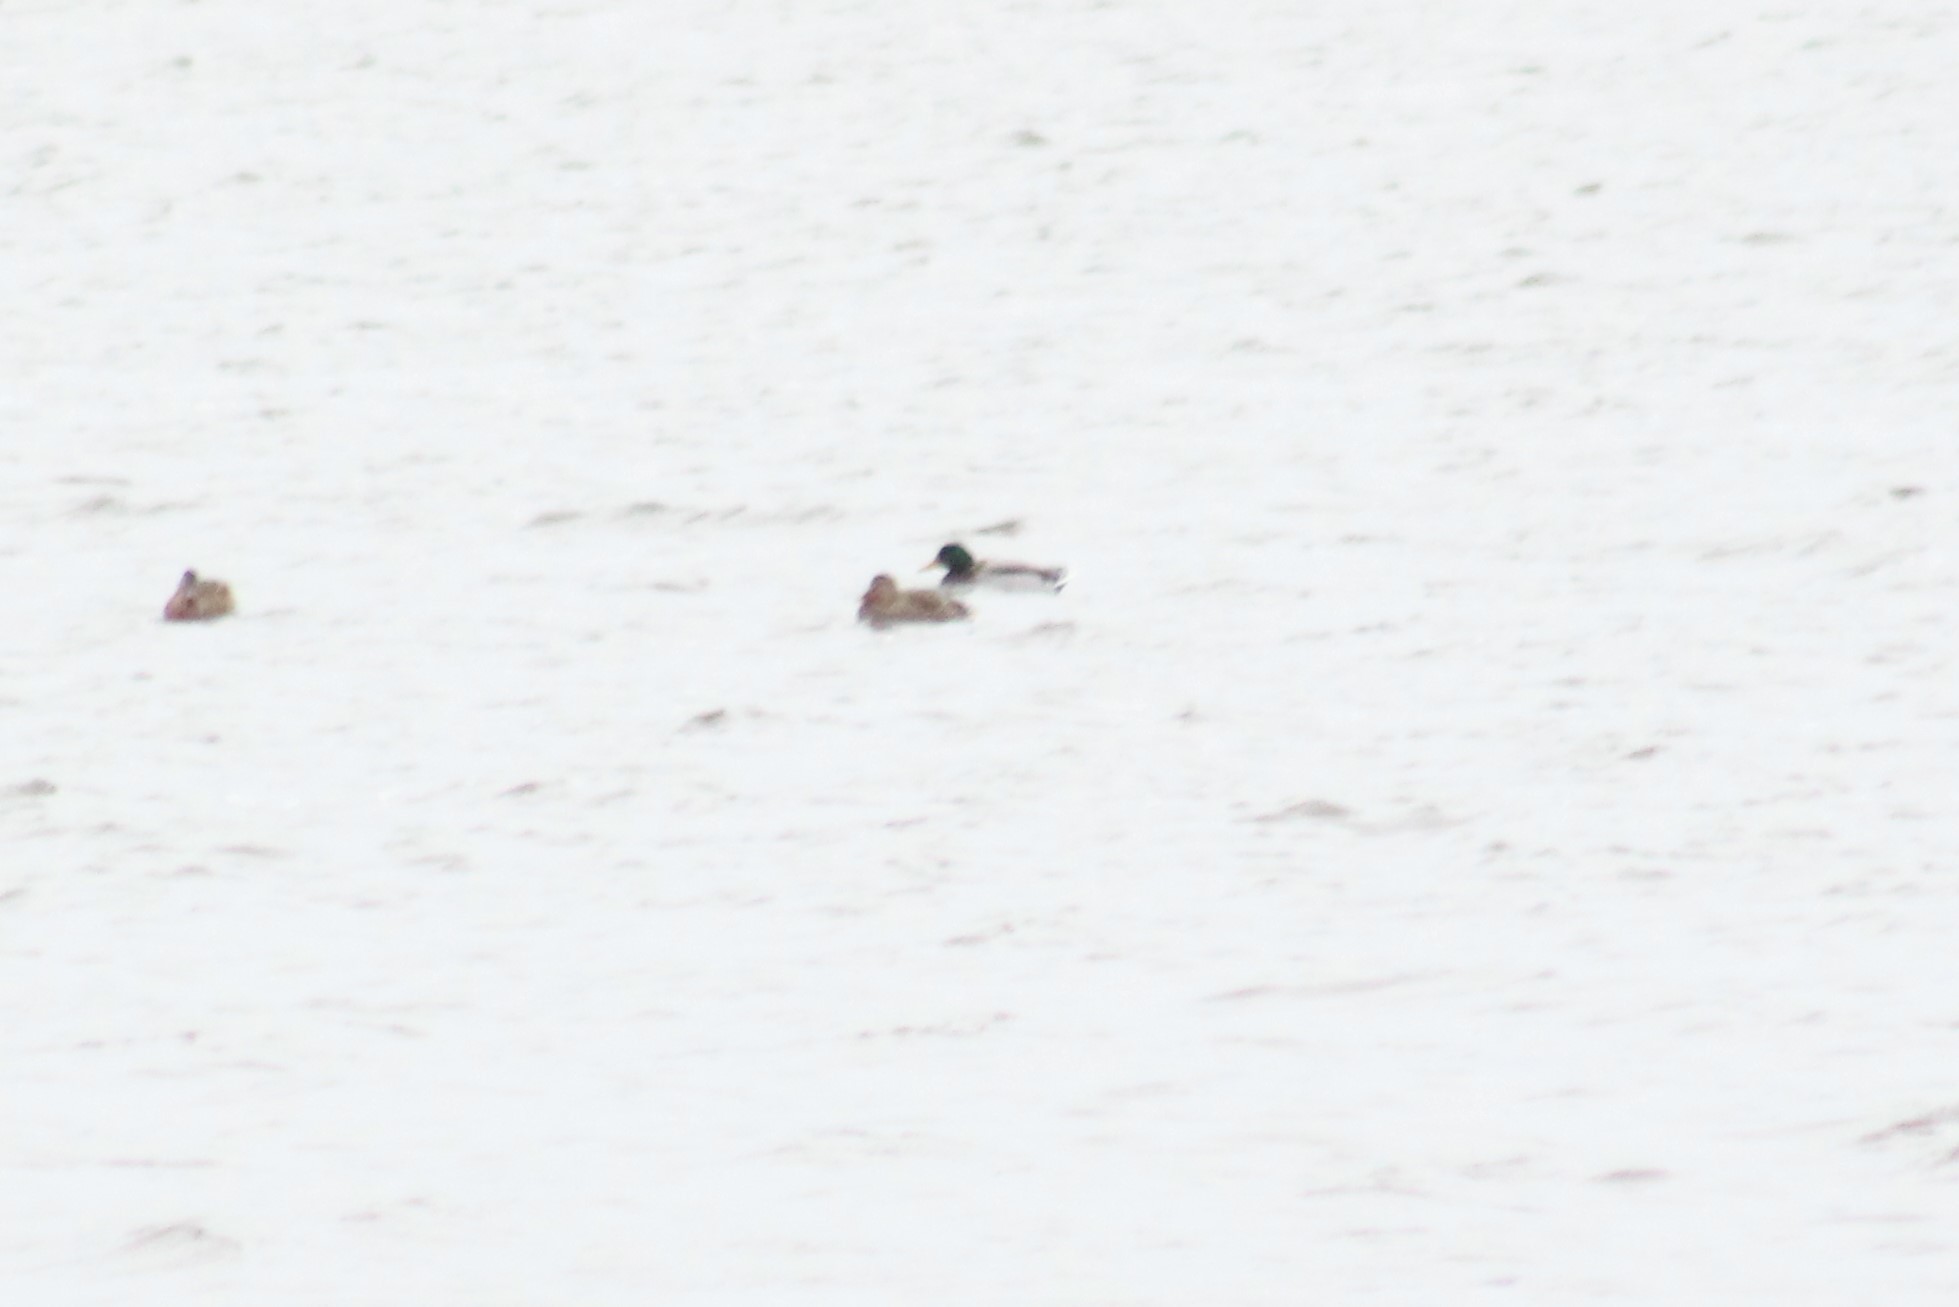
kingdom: Animalia
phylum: Chordata
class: Aves
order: Anseriformes
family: Anatidae
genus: Anas
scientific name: Anas platyrhynchos
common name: Mallard
